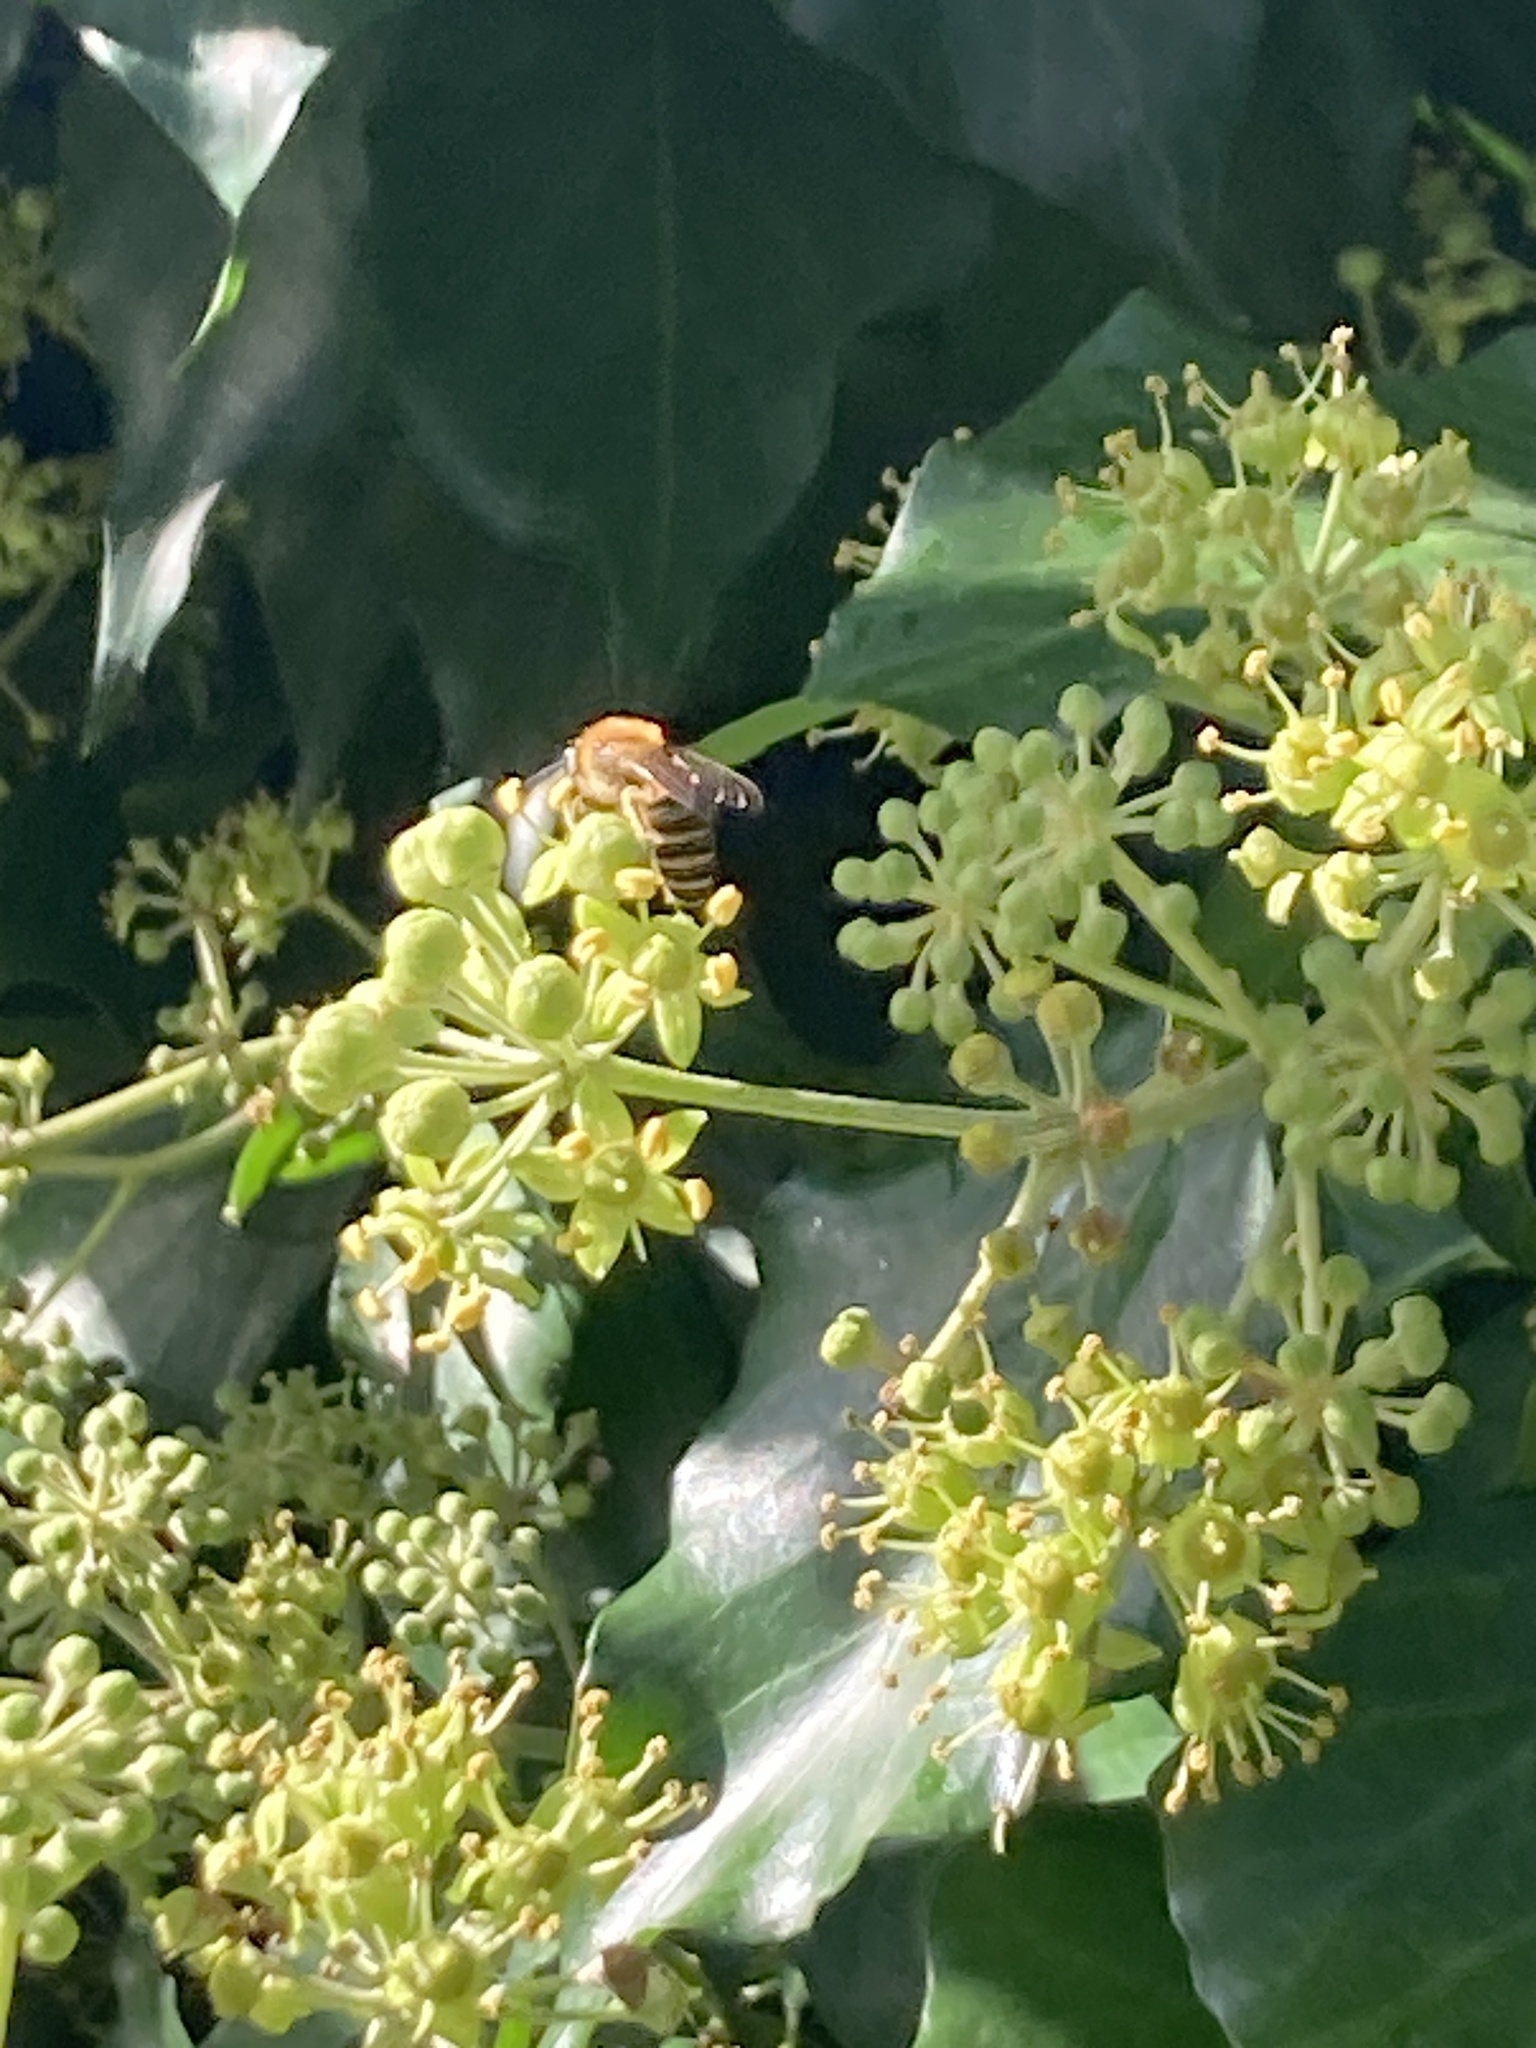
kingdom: Animalia
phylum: Arthropoda
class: Insecta
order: Hymenoptera
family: Colletidae
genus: Colletes
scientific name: Colletes hederae
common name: Ivy bee
